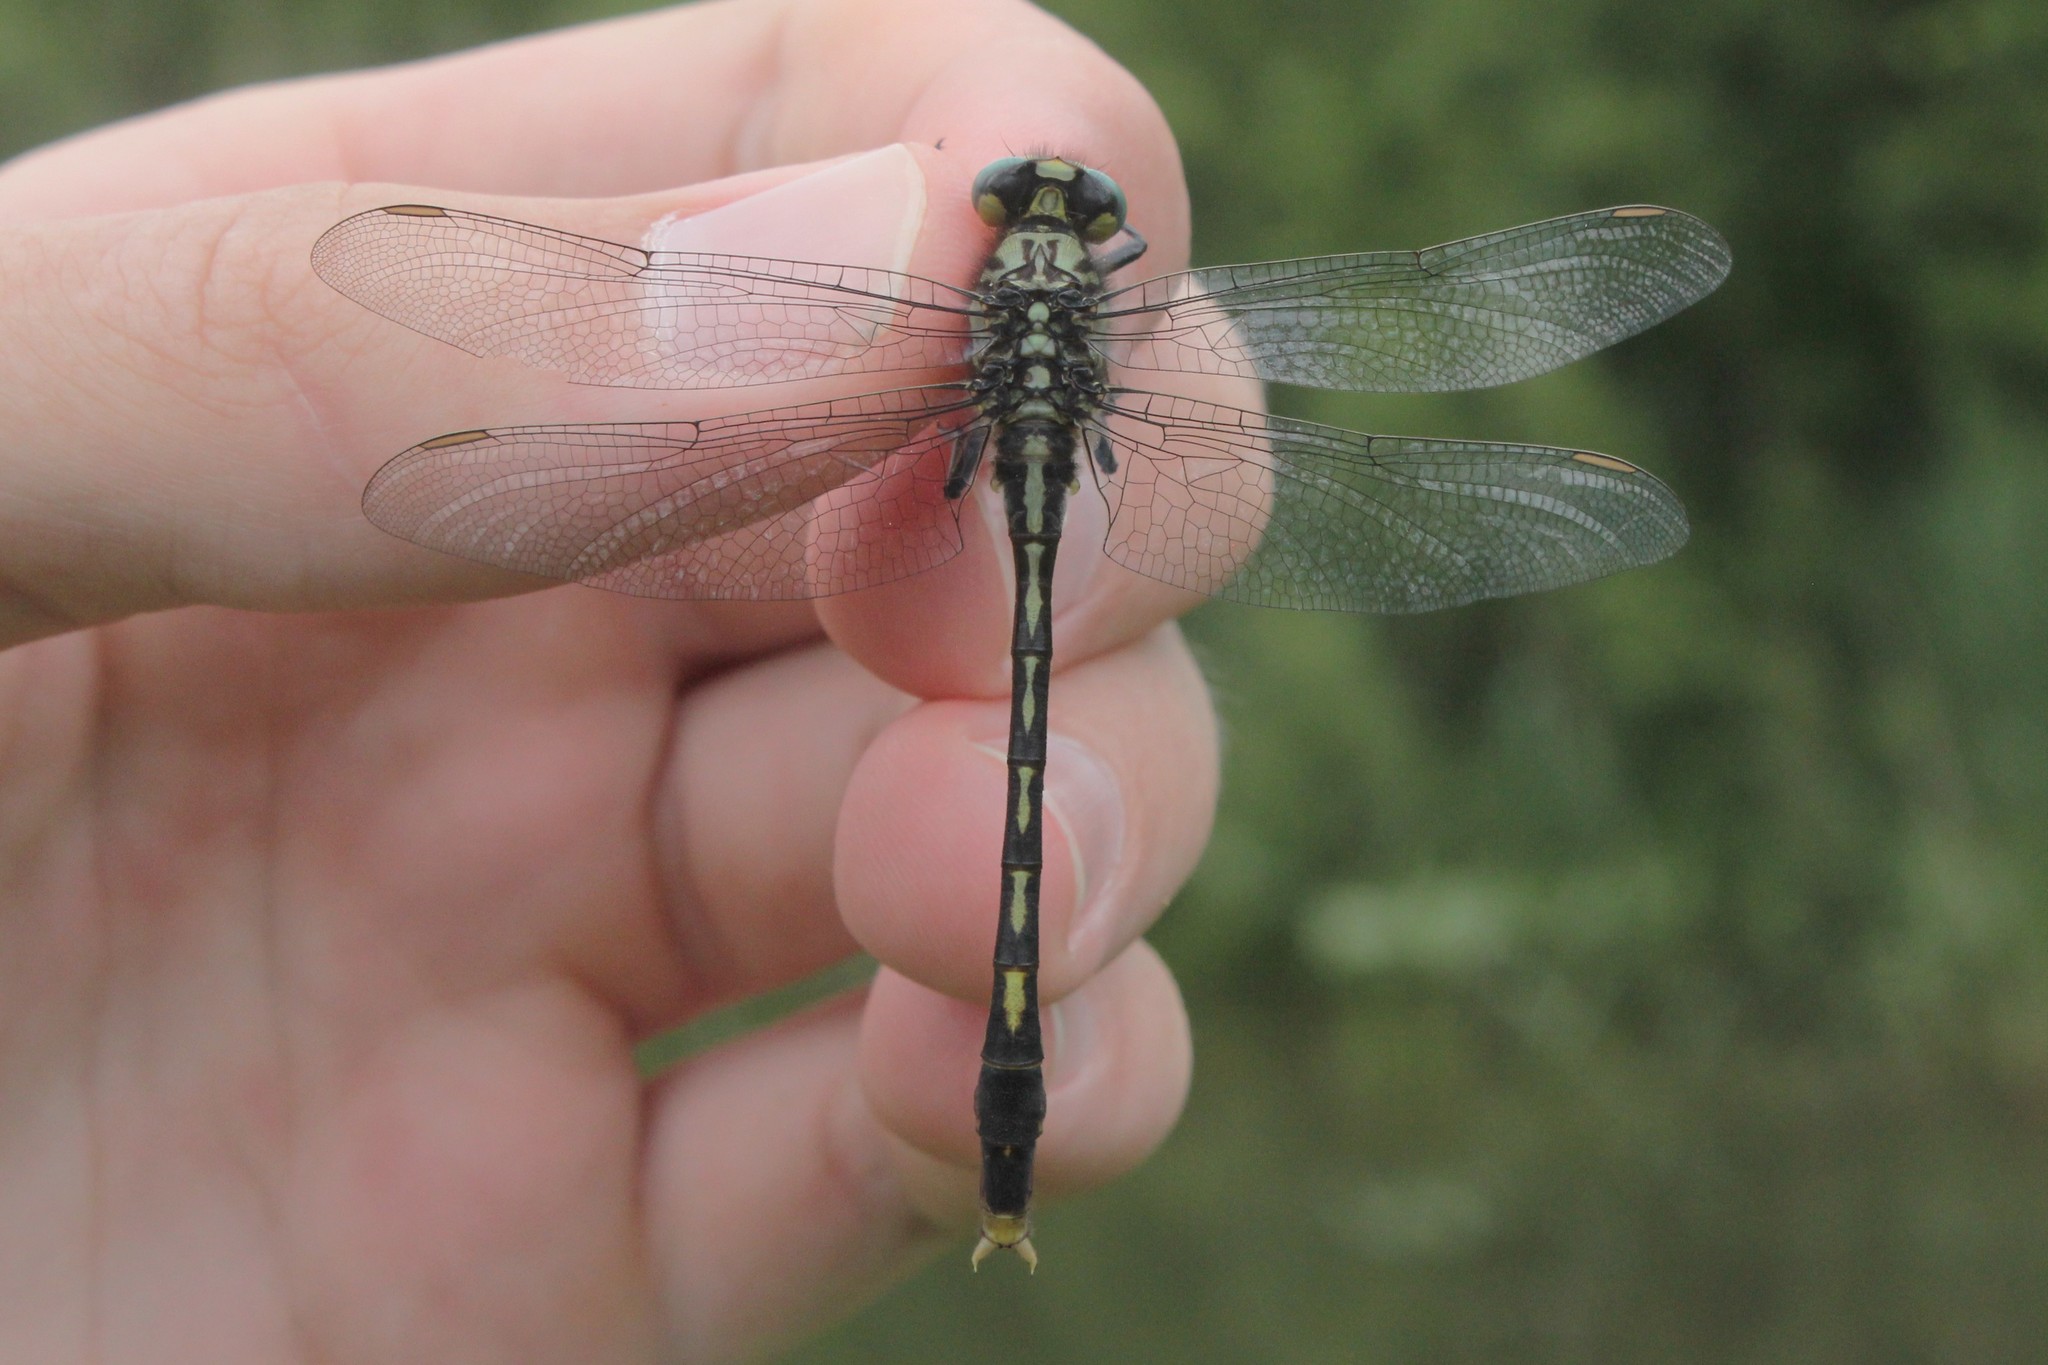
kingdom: Animalia
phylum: Arthropoda
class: Insecta
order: Odonata
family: Gomphidae
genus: Arigomphus
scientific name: Arigomphus villosipes
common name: Unicorn clubtail
